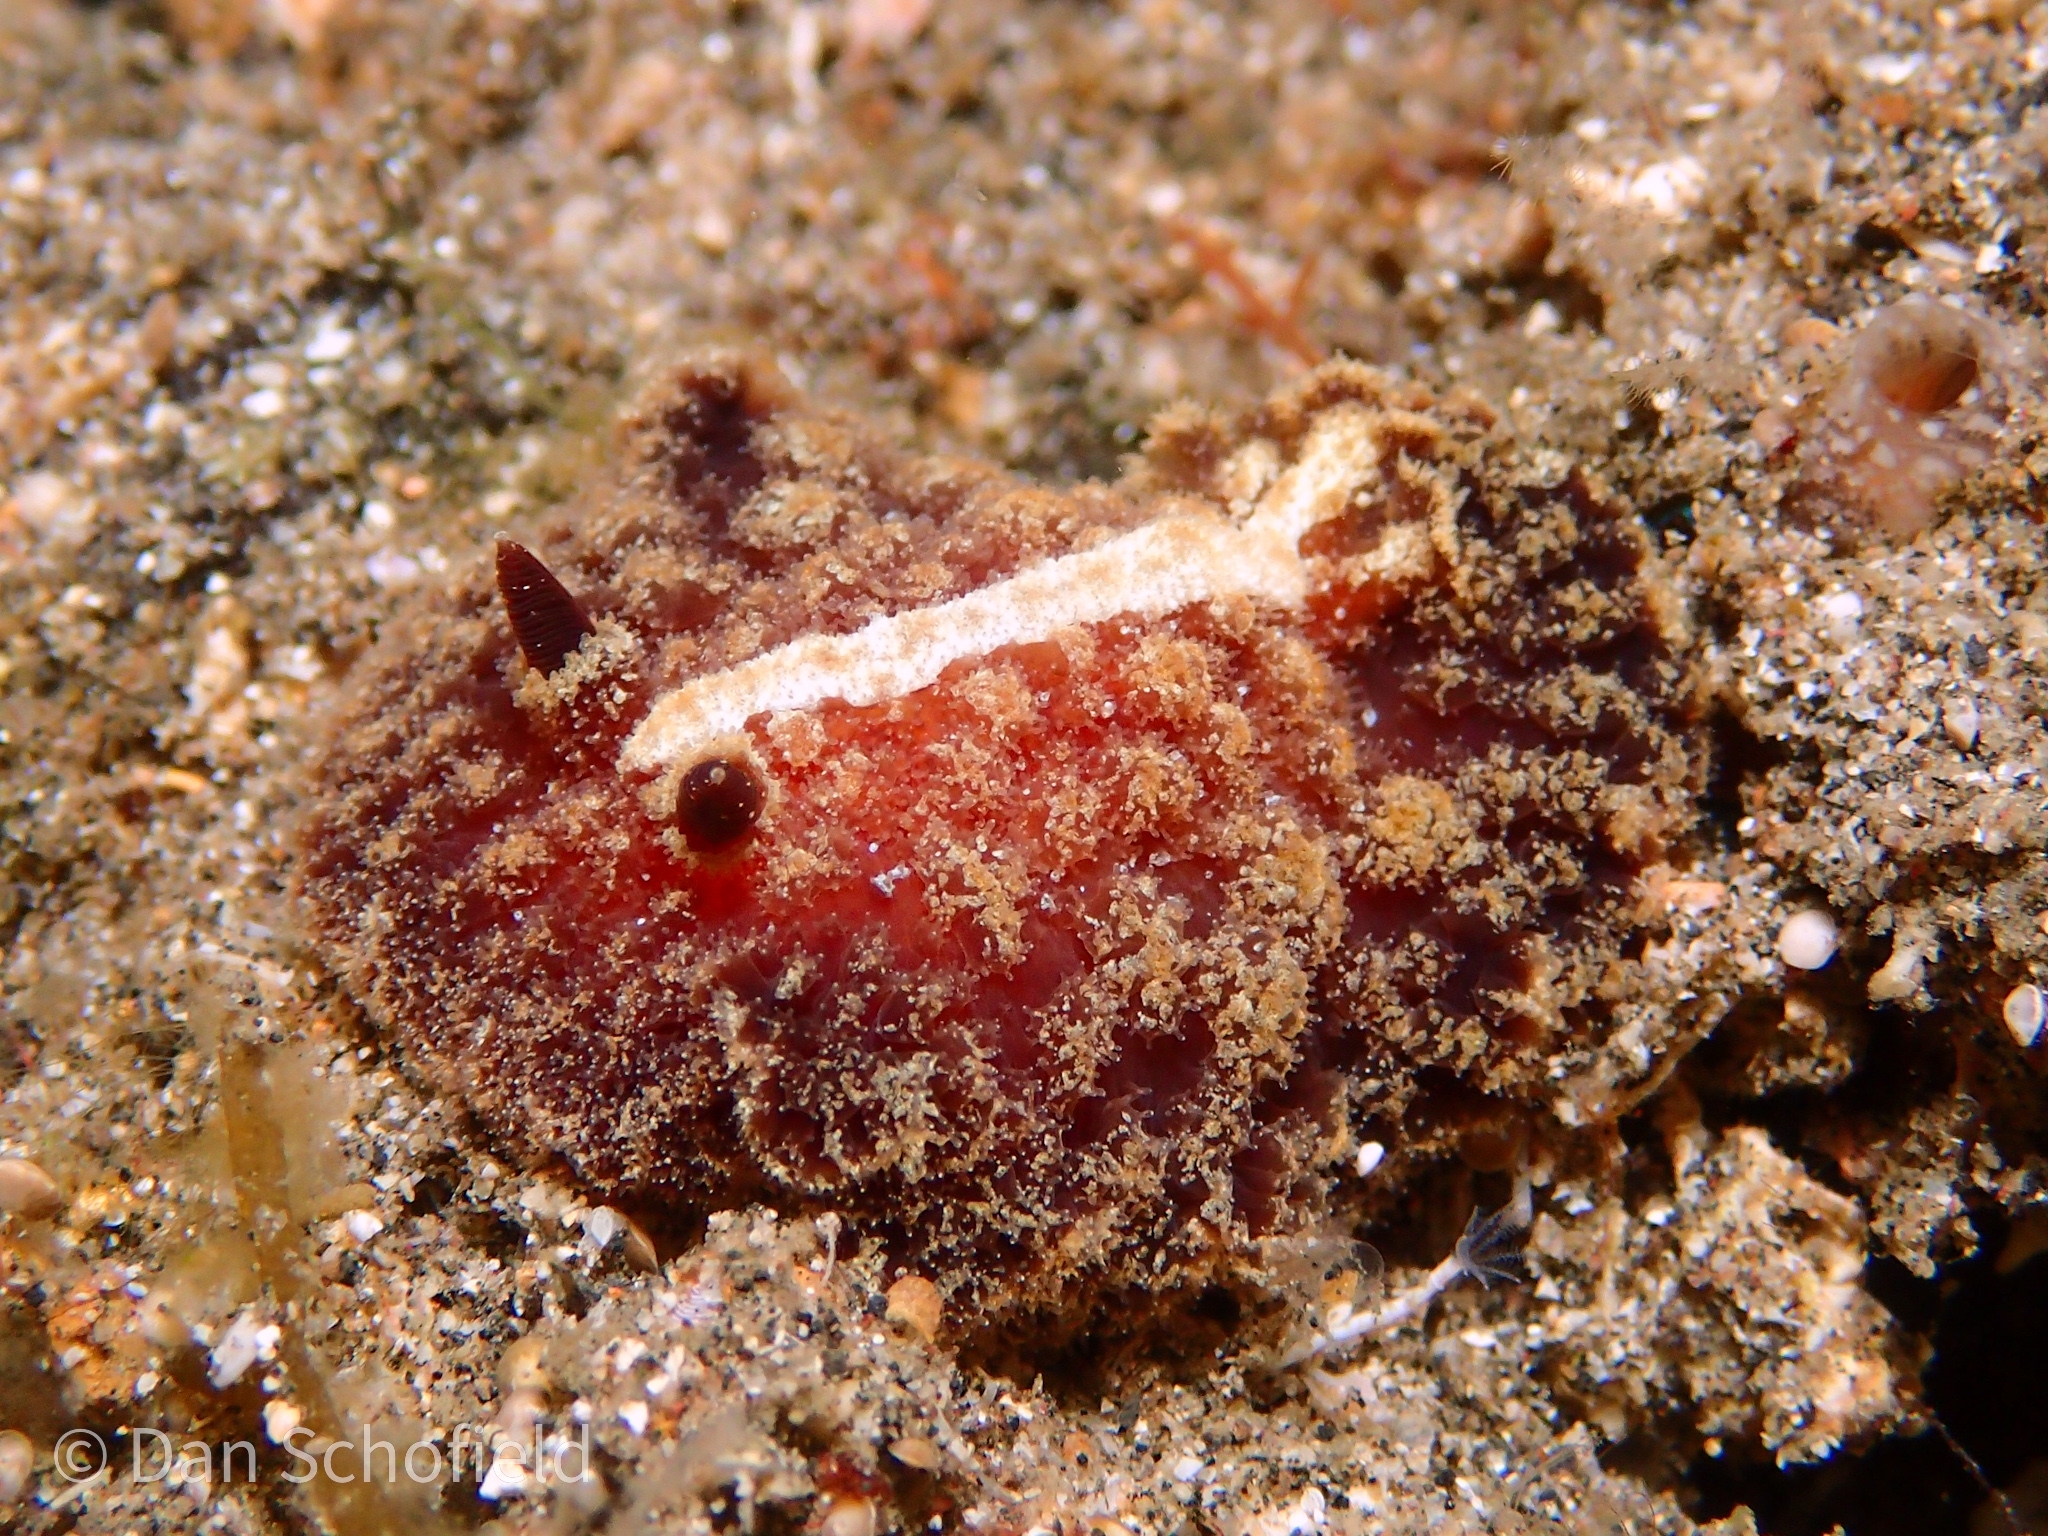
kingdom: Animalia
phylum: Mollusca
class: Gastropoda
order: Nudibranchia
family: Discodorididae
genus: Atagema
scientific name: Atagema intecta
